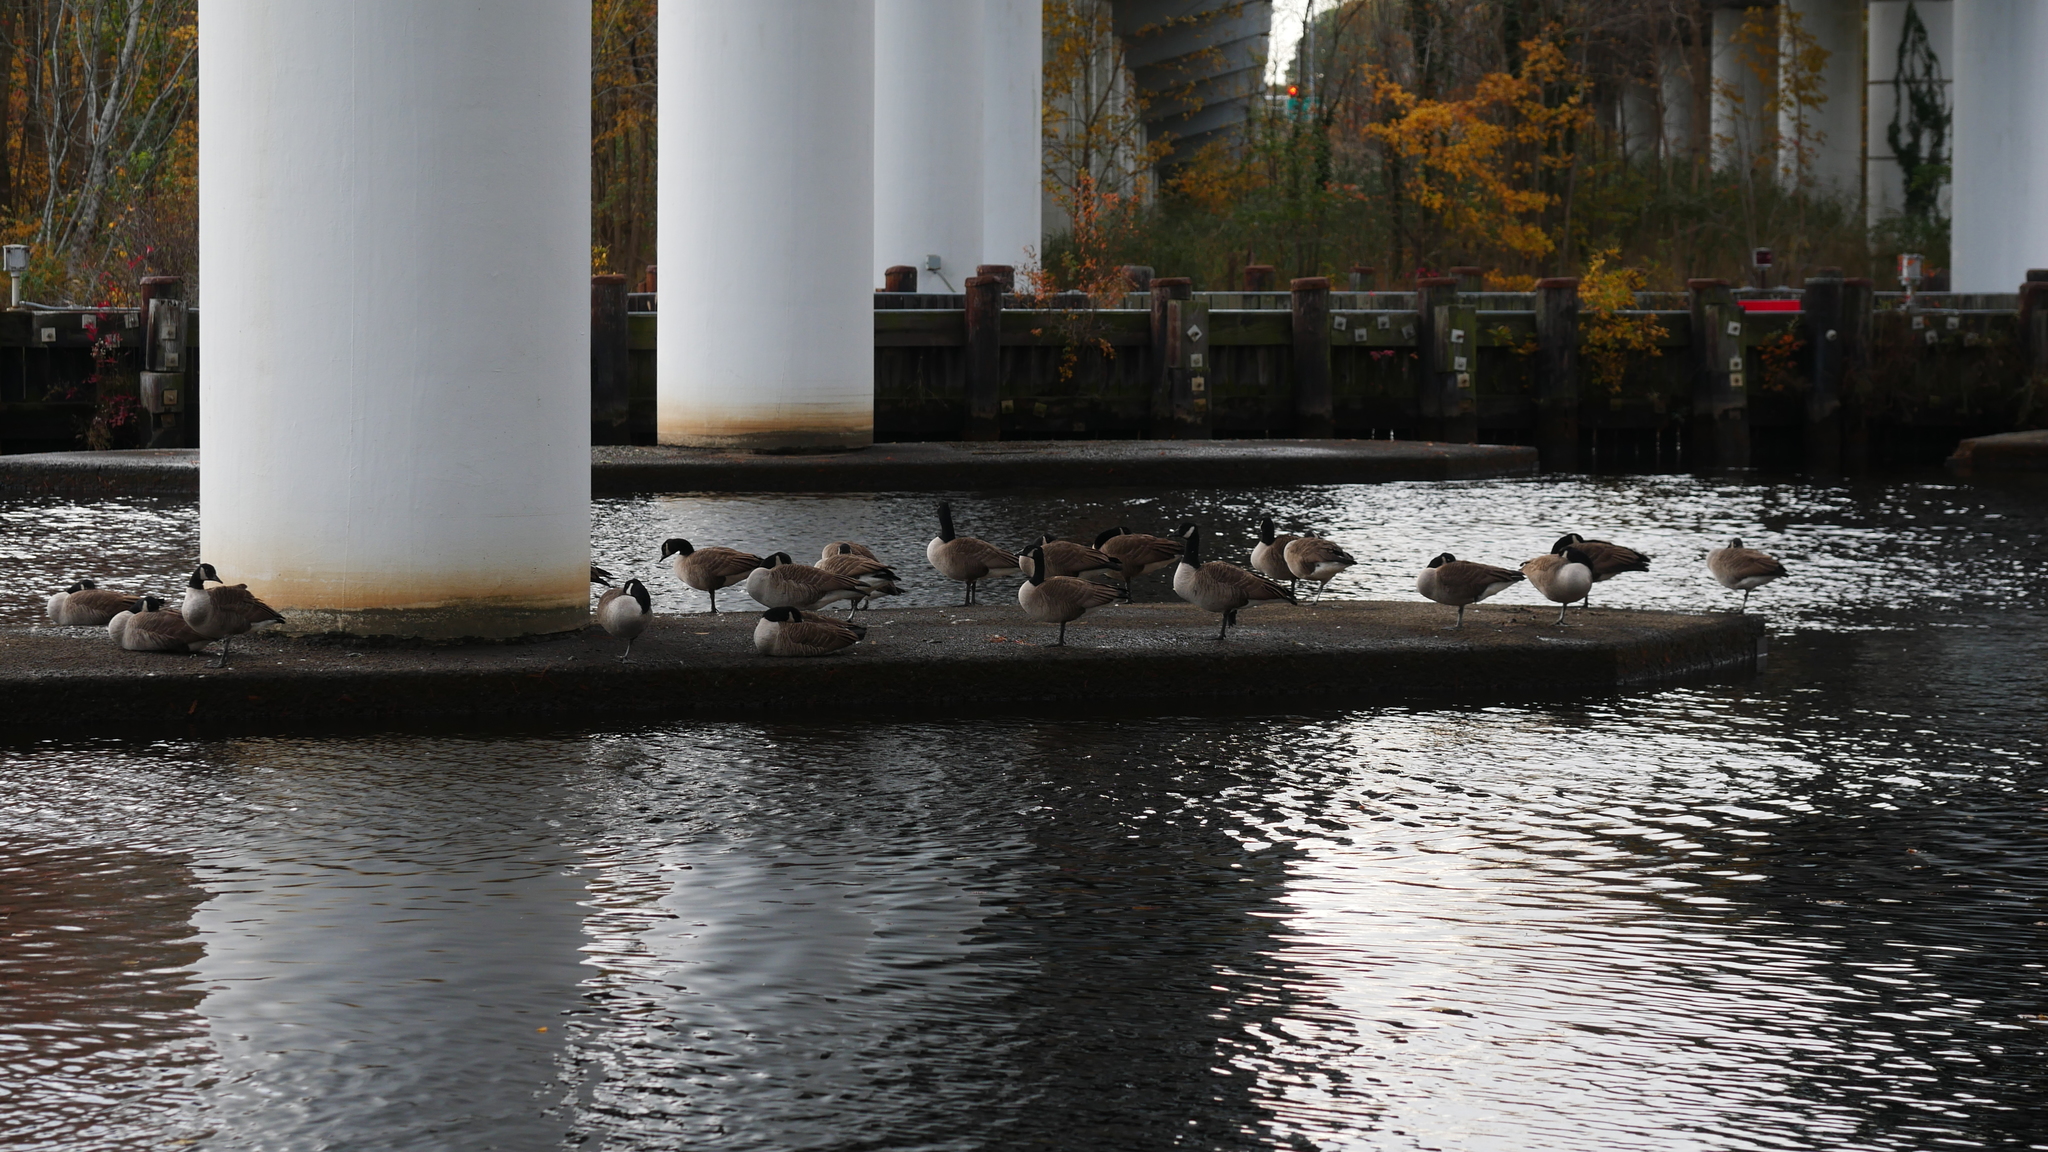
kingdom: Animalia
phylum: Chordata
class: Aves
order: Anseriformes
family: Anatidae
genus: Branta
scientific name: Branta canadensis
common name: Canada goose
